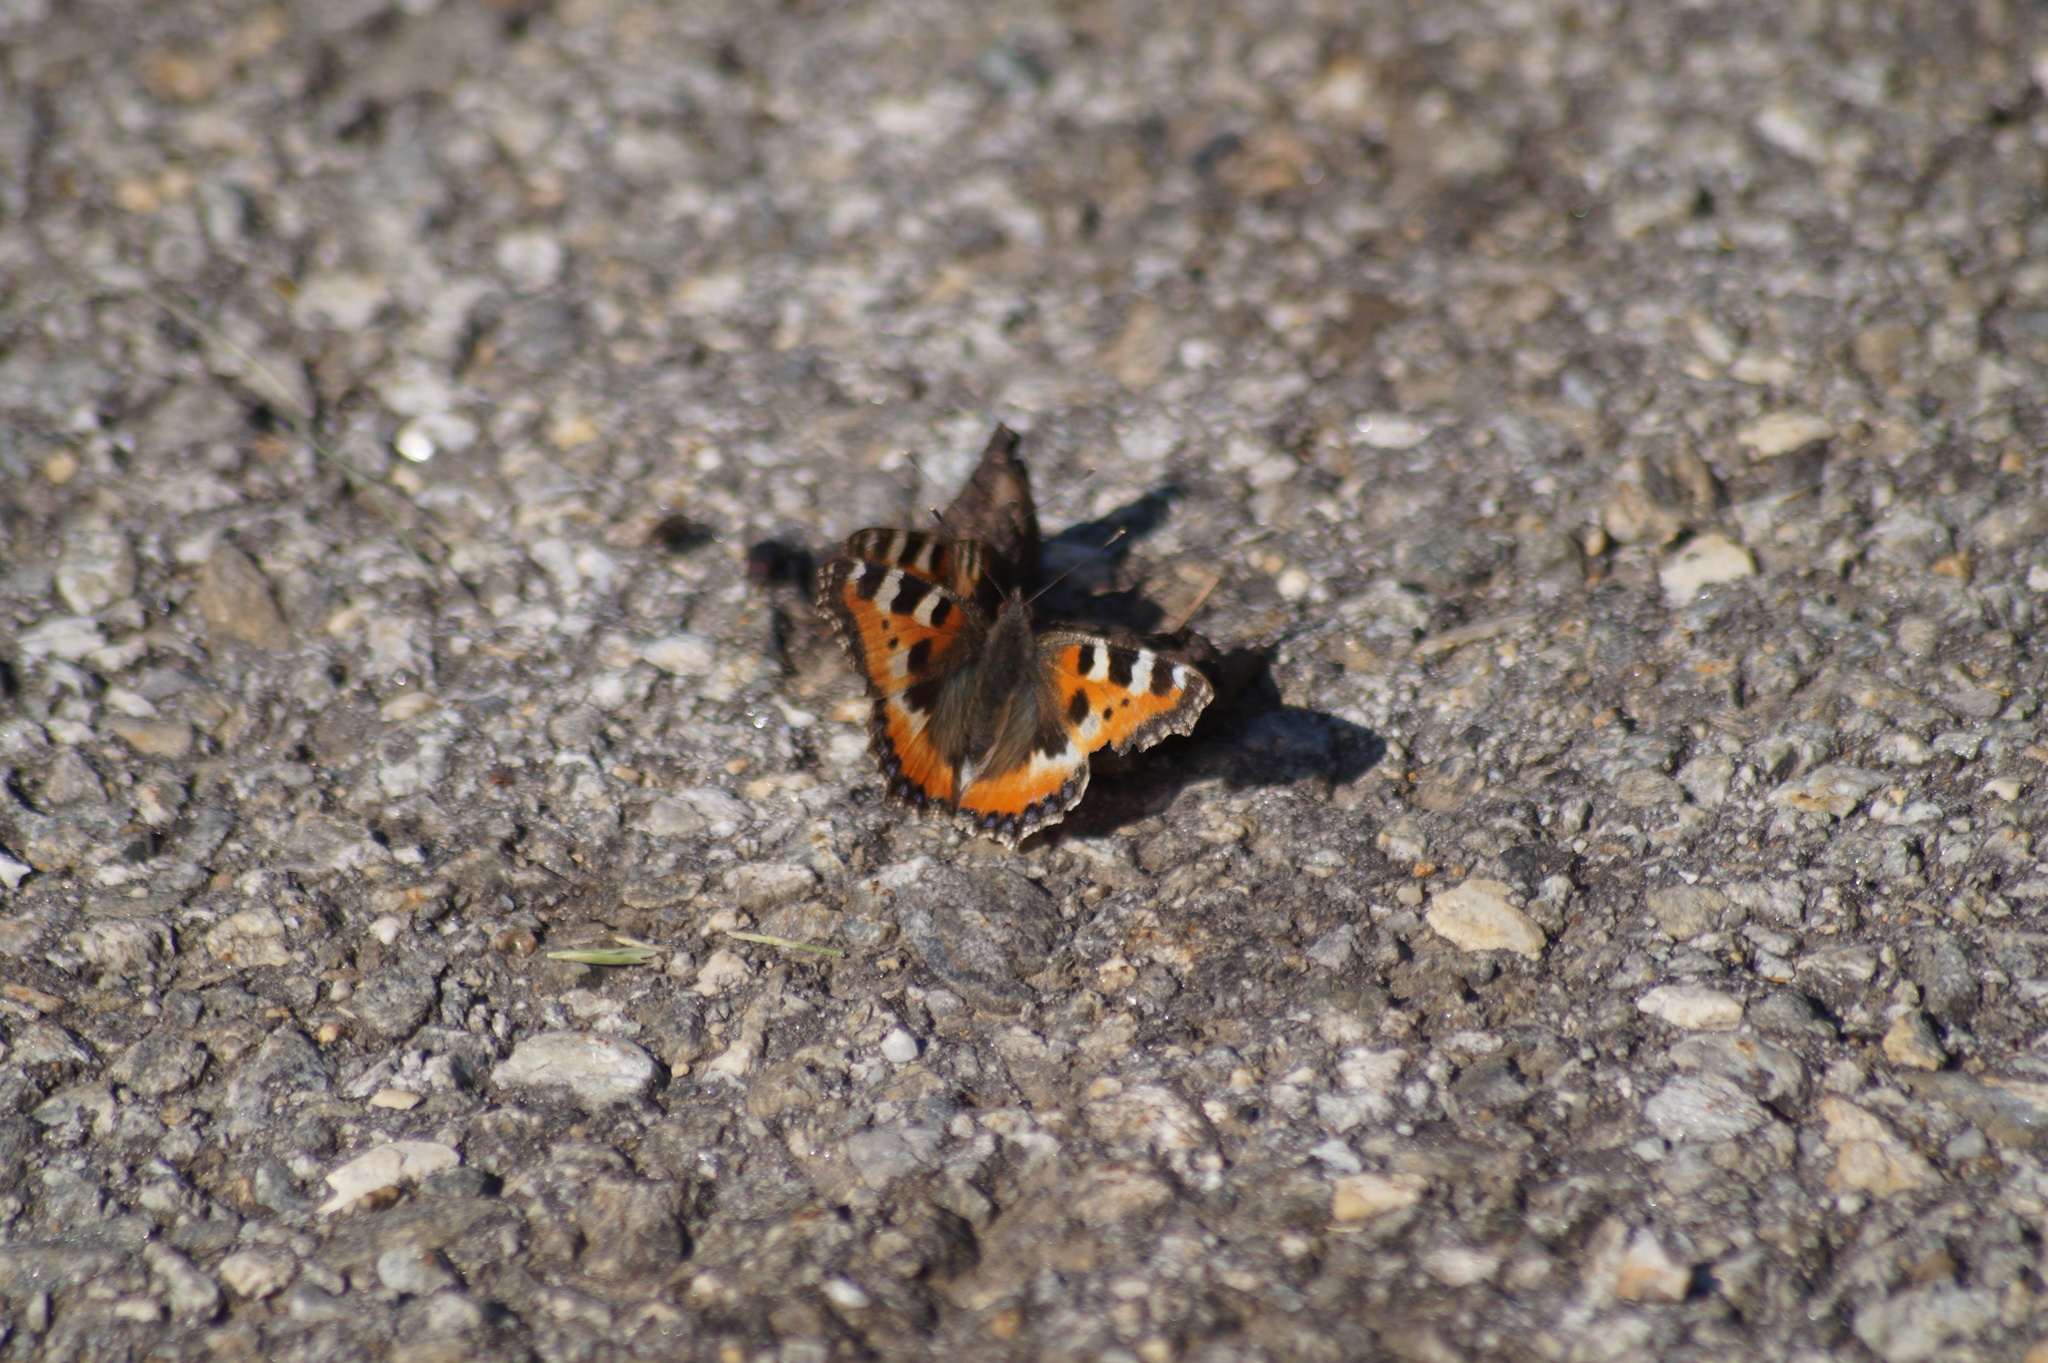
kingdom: Animalia
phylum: Arthropoda
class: Insecta
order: Lepidoptera
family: Nymphalidae
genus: Aglais
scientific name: Aglais urticae
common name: Small tortoiseshell
